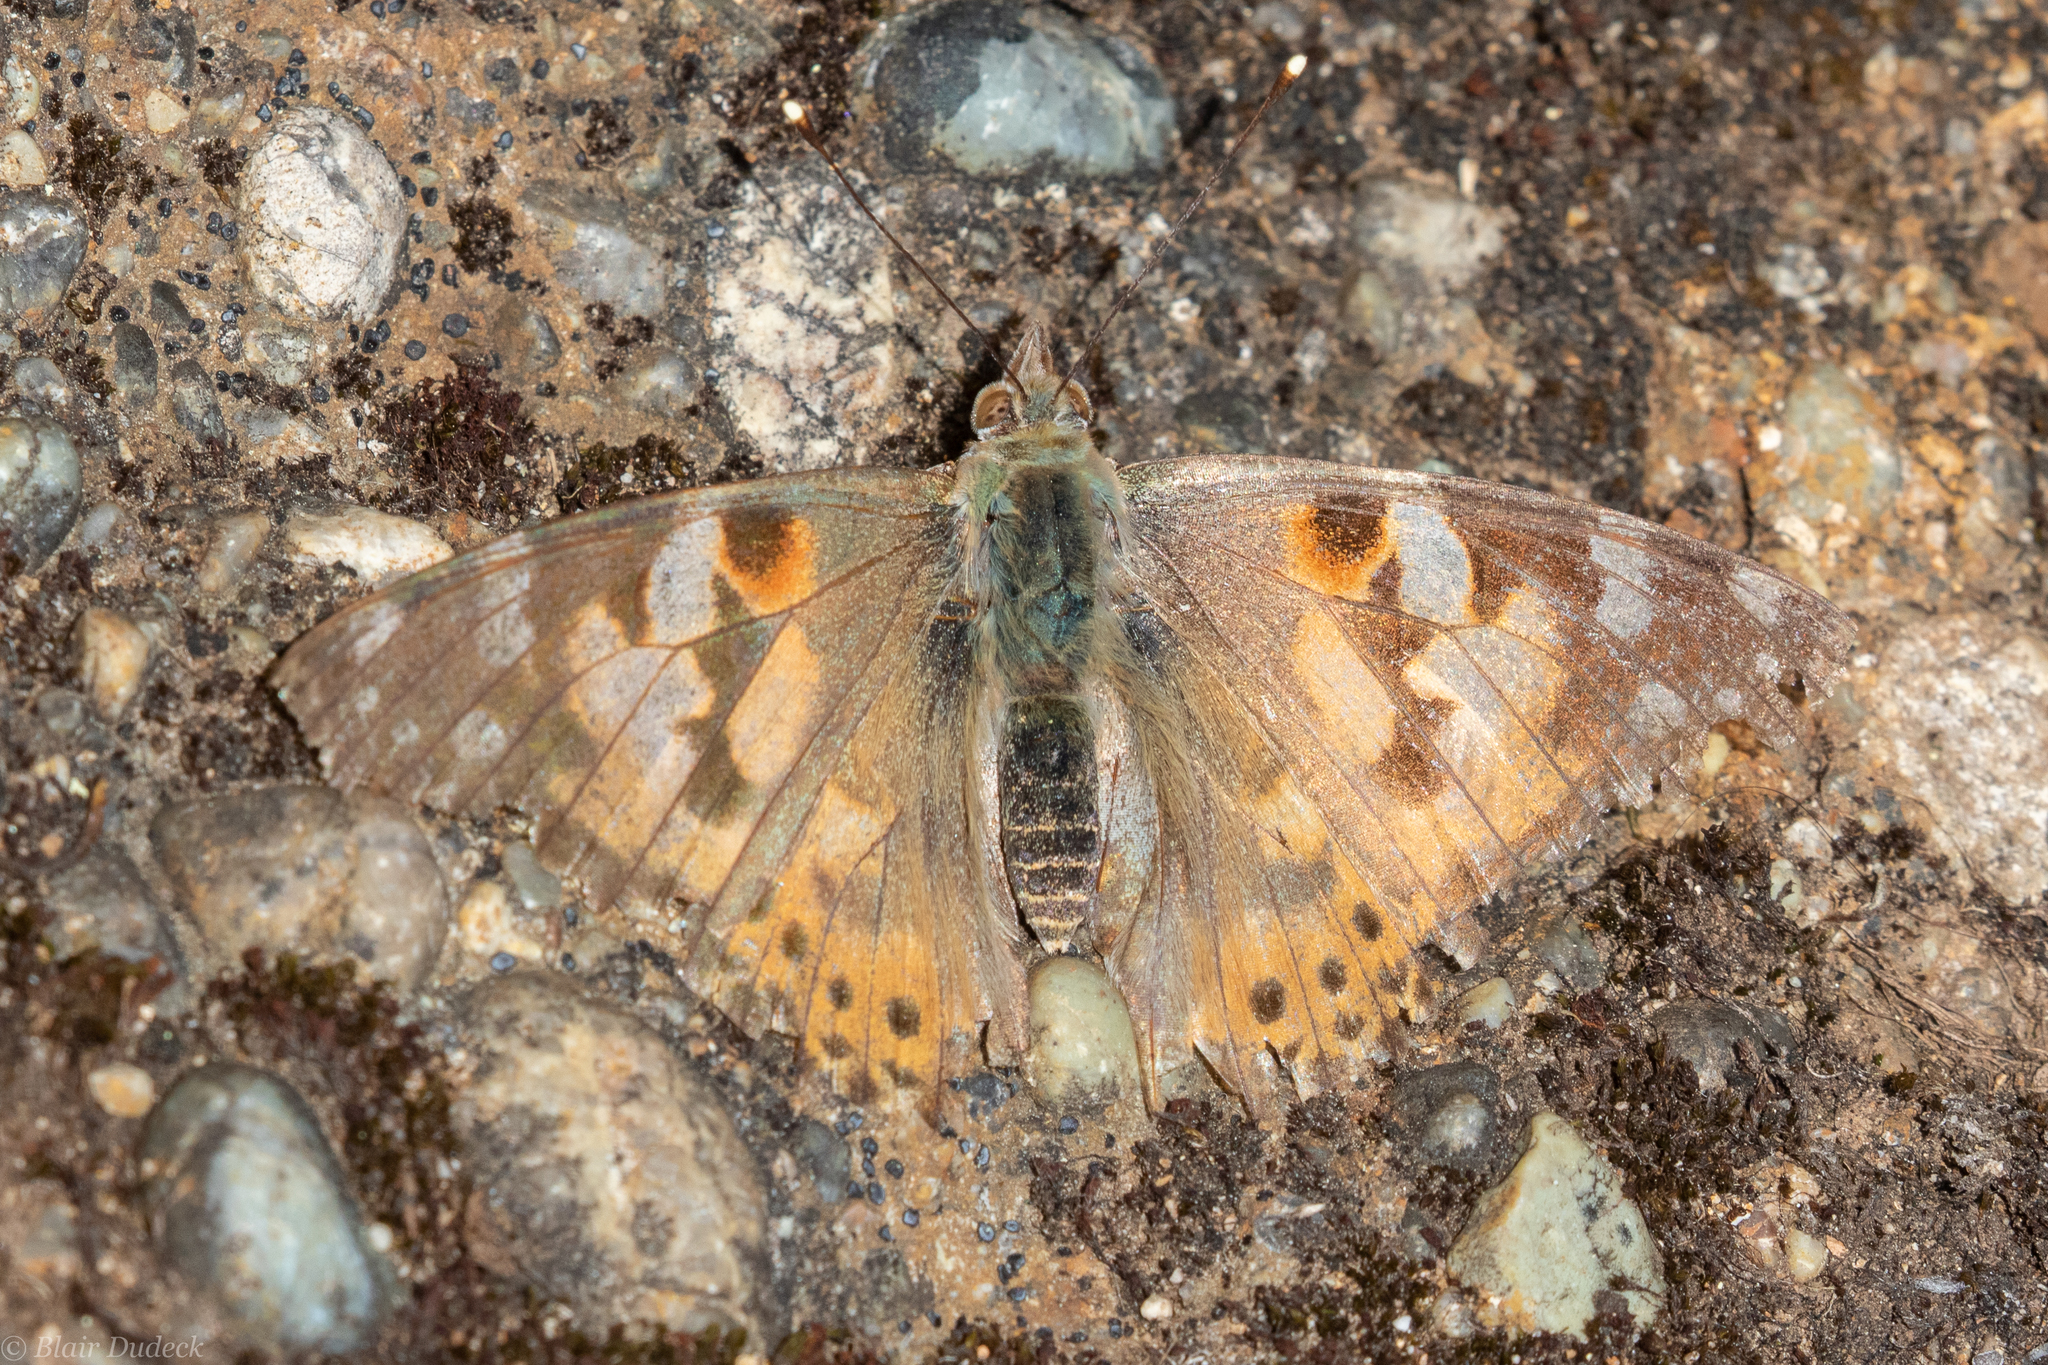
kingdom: Animalia
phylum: Arthropoda
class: Insecta
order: Lepidoptera
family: Nymphalidae
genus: Vanessa
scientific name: Vanessa cardui
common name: Painted lady
